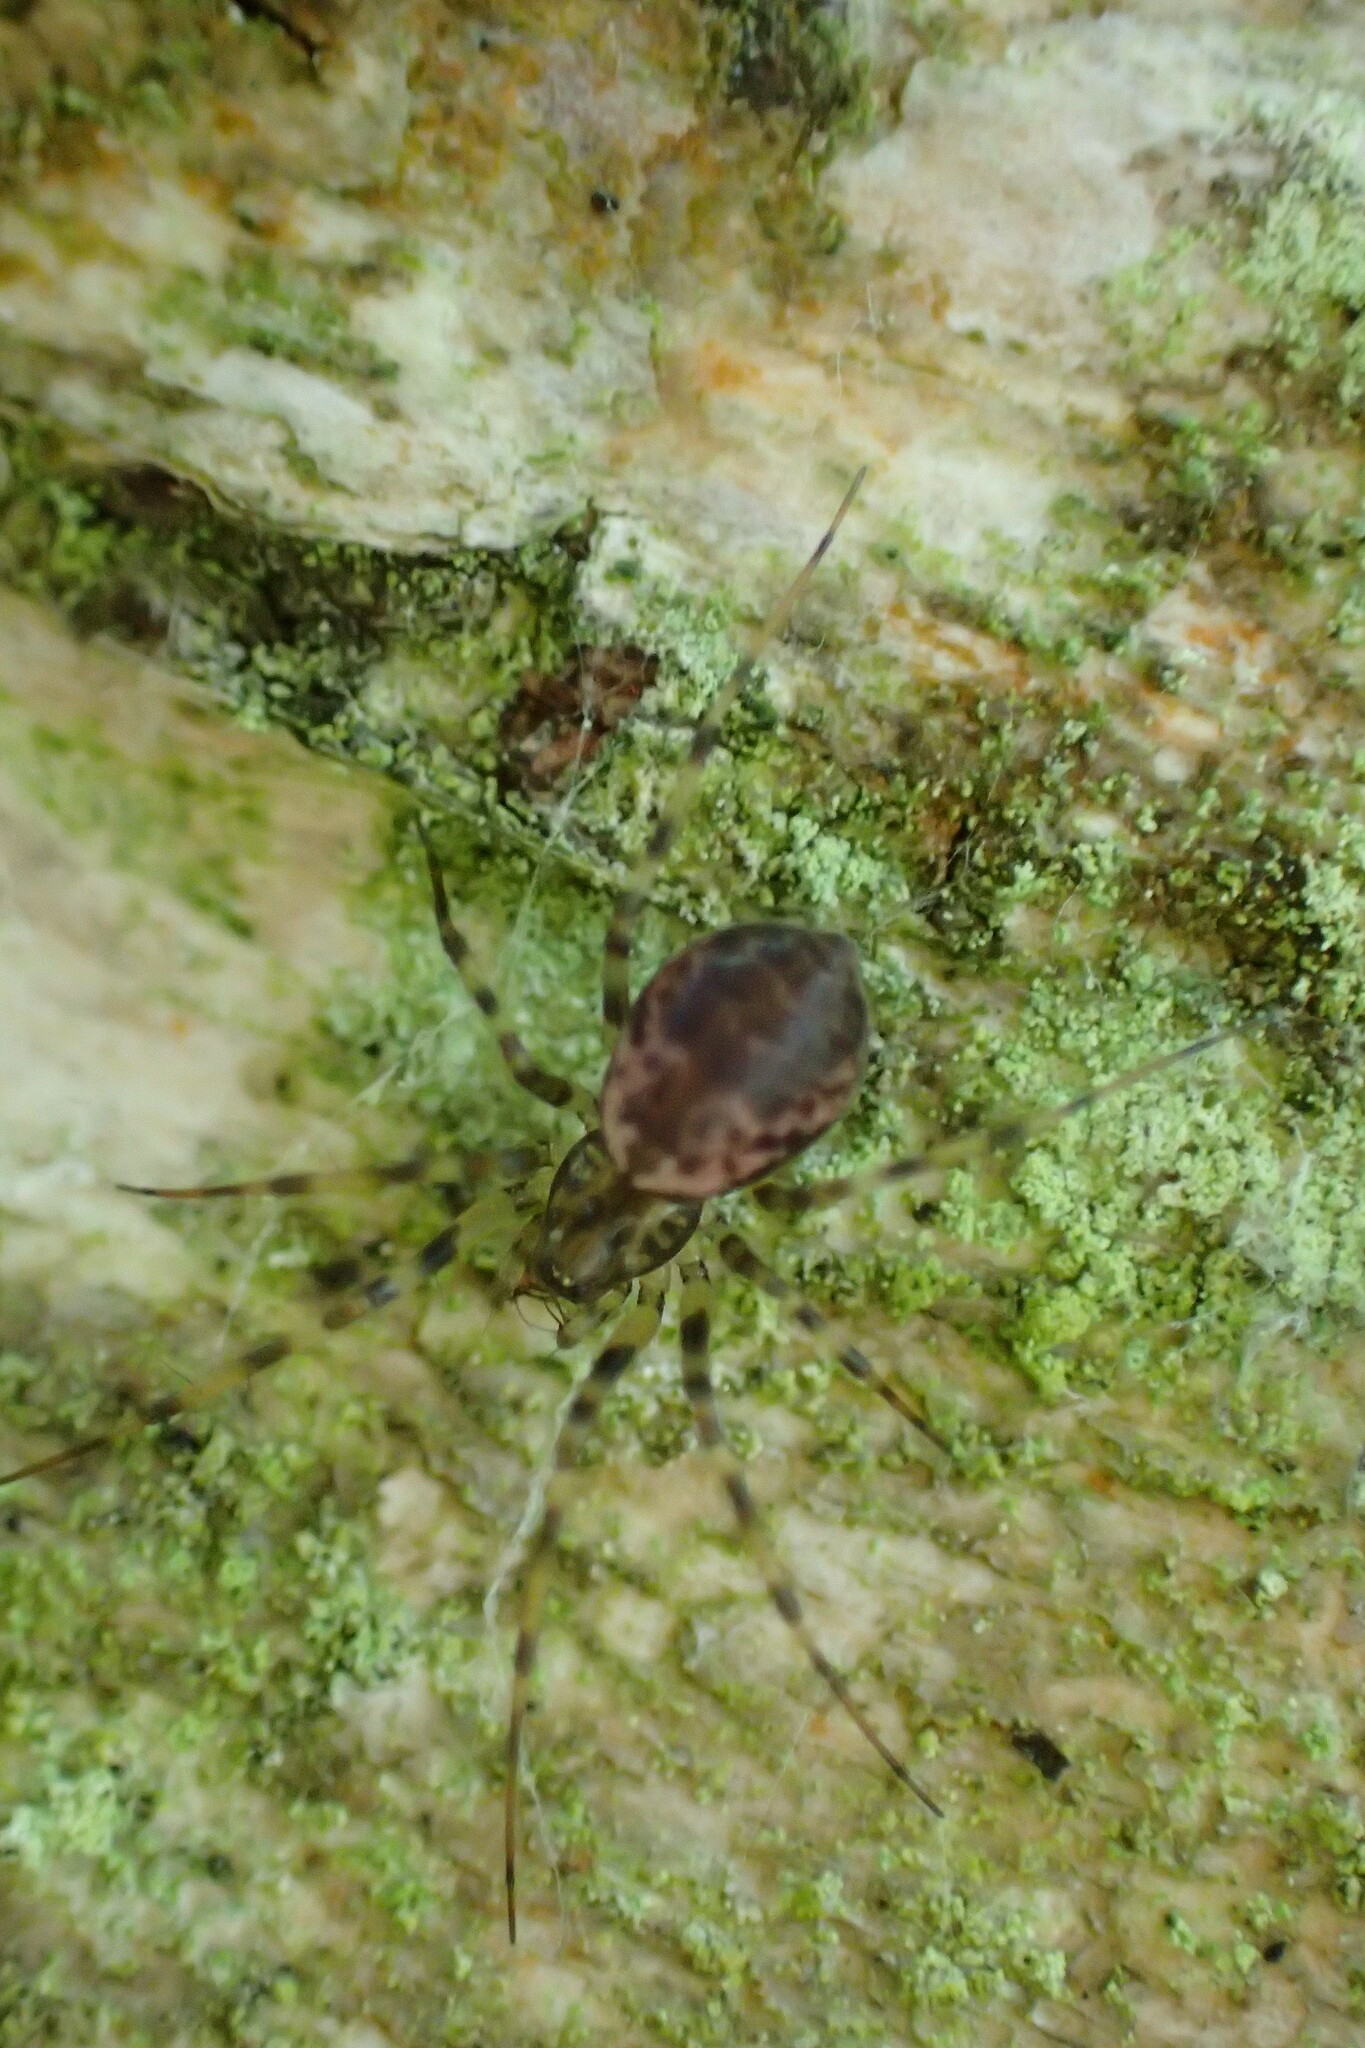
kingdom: Animalia
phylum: Arthropoda
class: Arachnida
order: Araneae
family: Linyphiidae
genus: Drapetisca
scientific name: Drapetisca socialis
